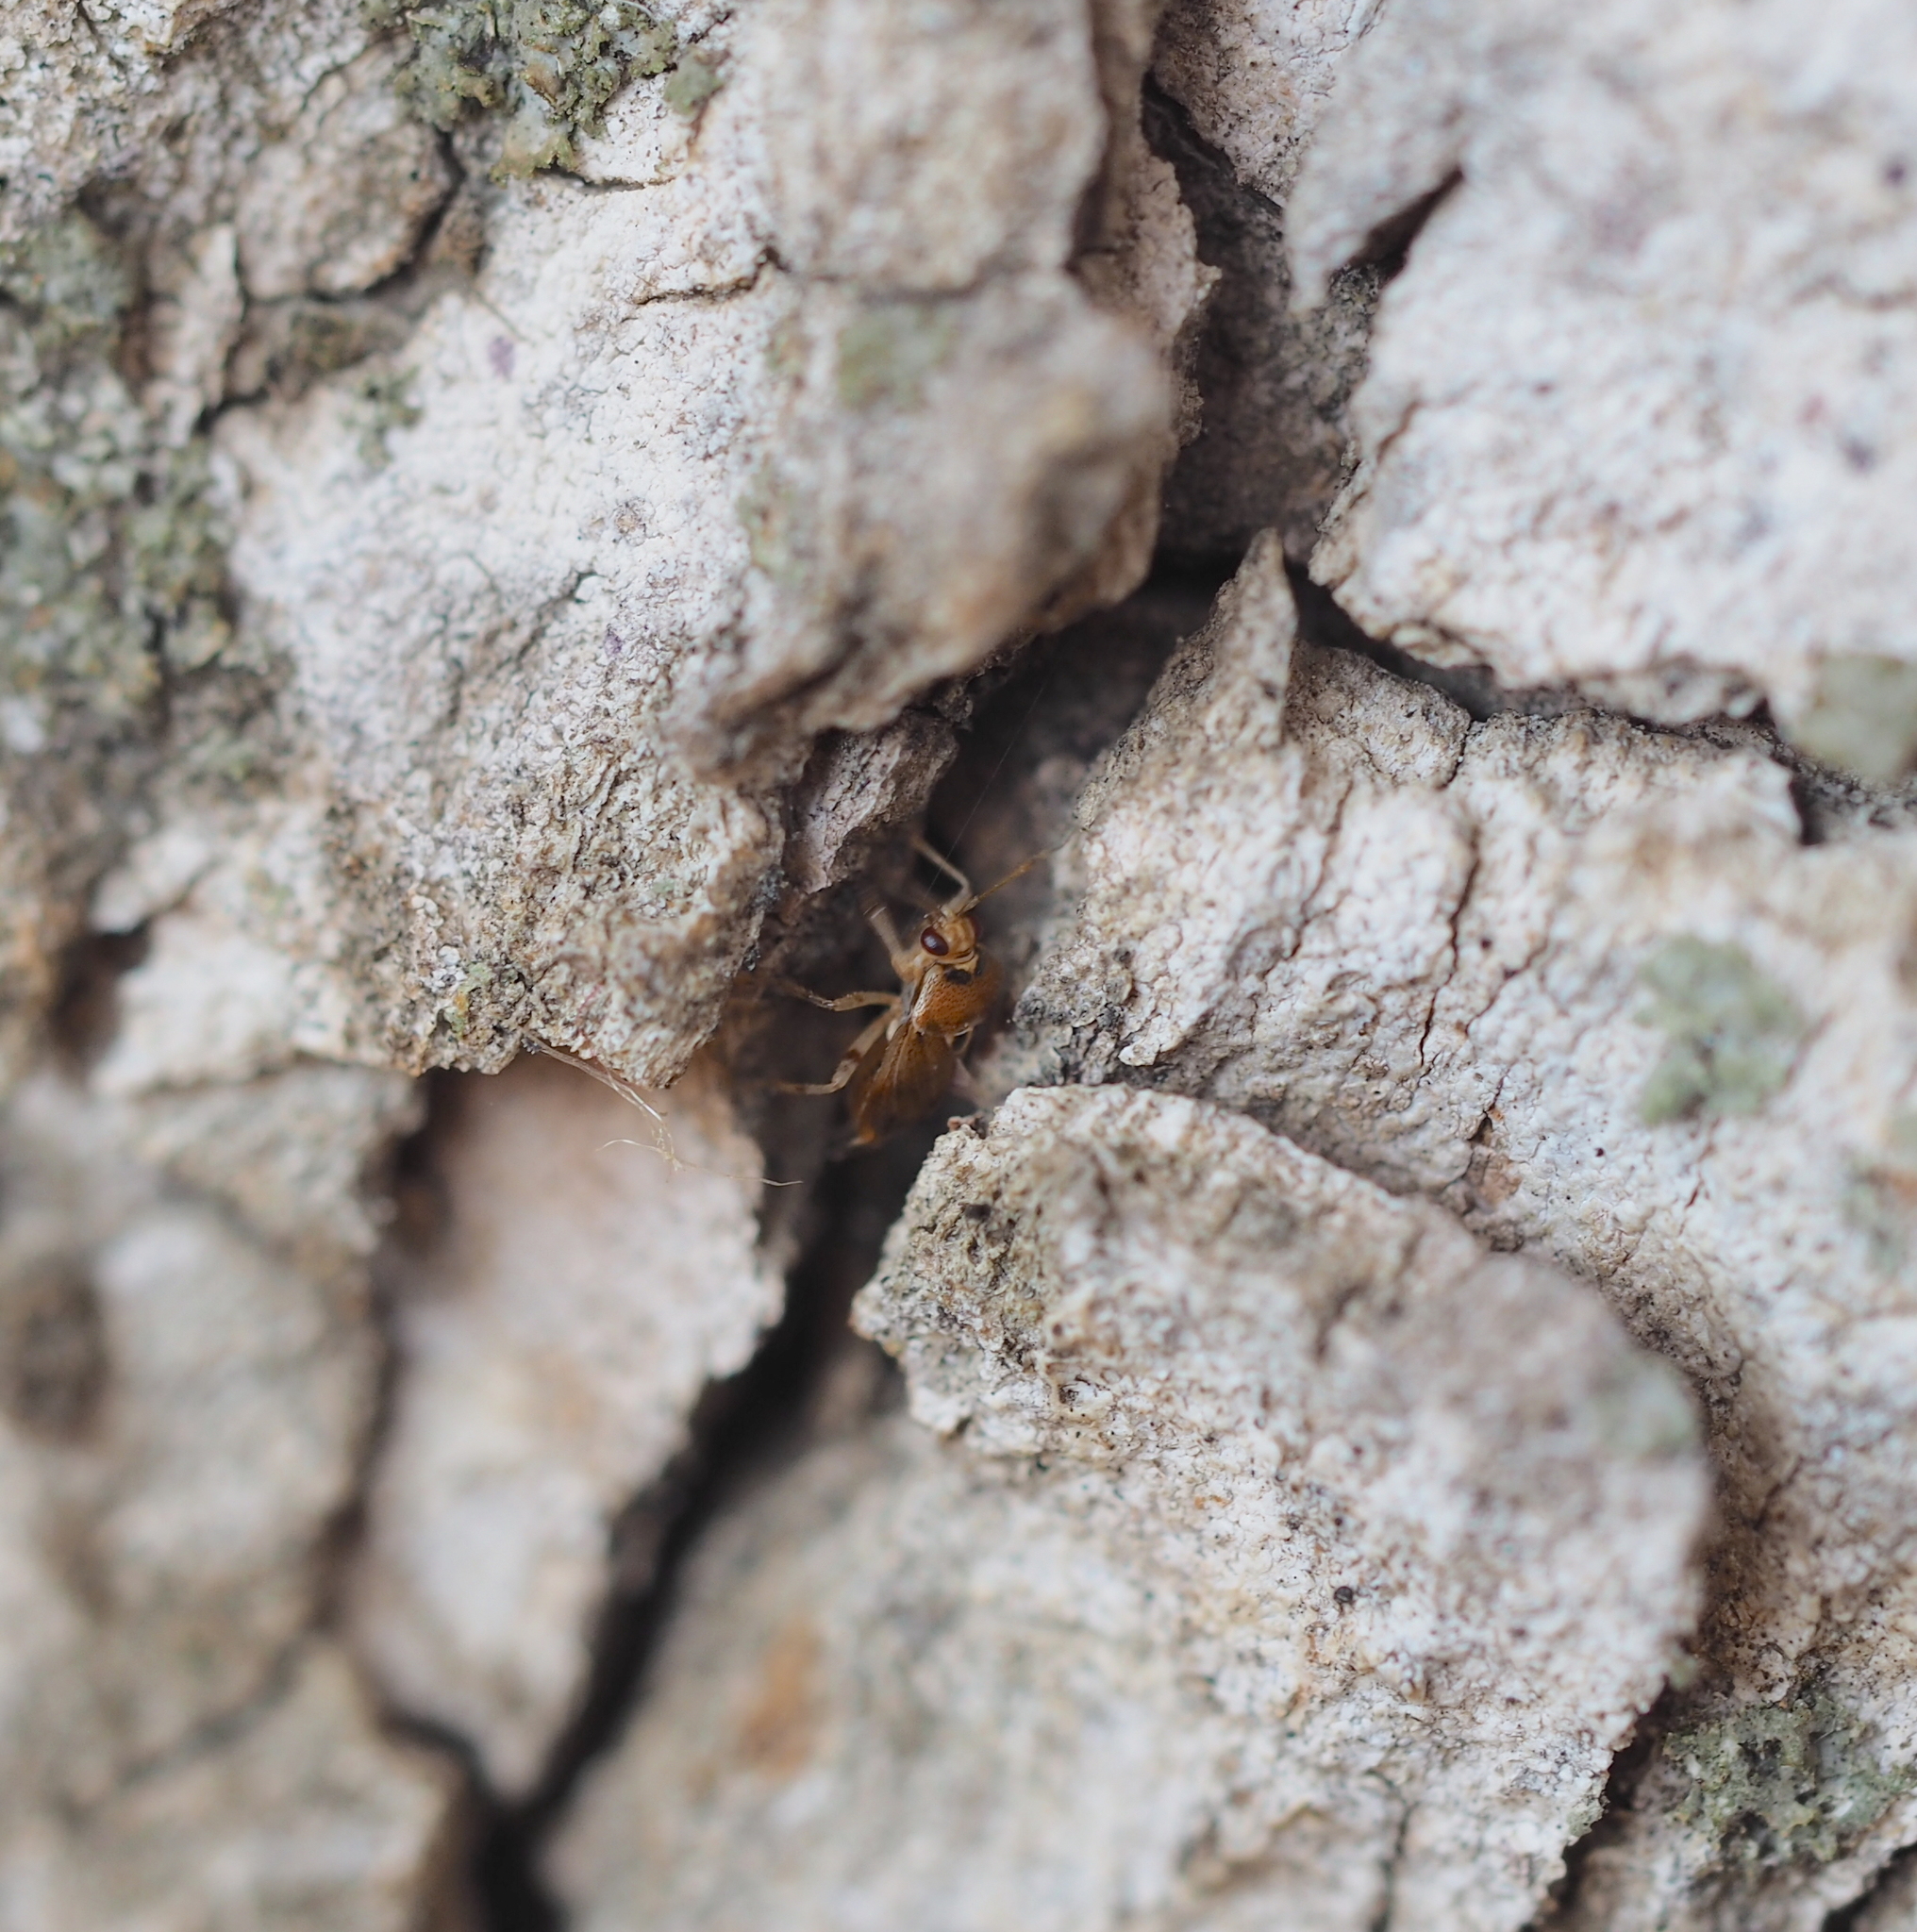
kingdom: Animalia
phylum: Arthropoda
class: Insecta
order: Hemiptera
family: Miridae
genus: Deraeocoris
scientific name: Deraeocoris lutescens
